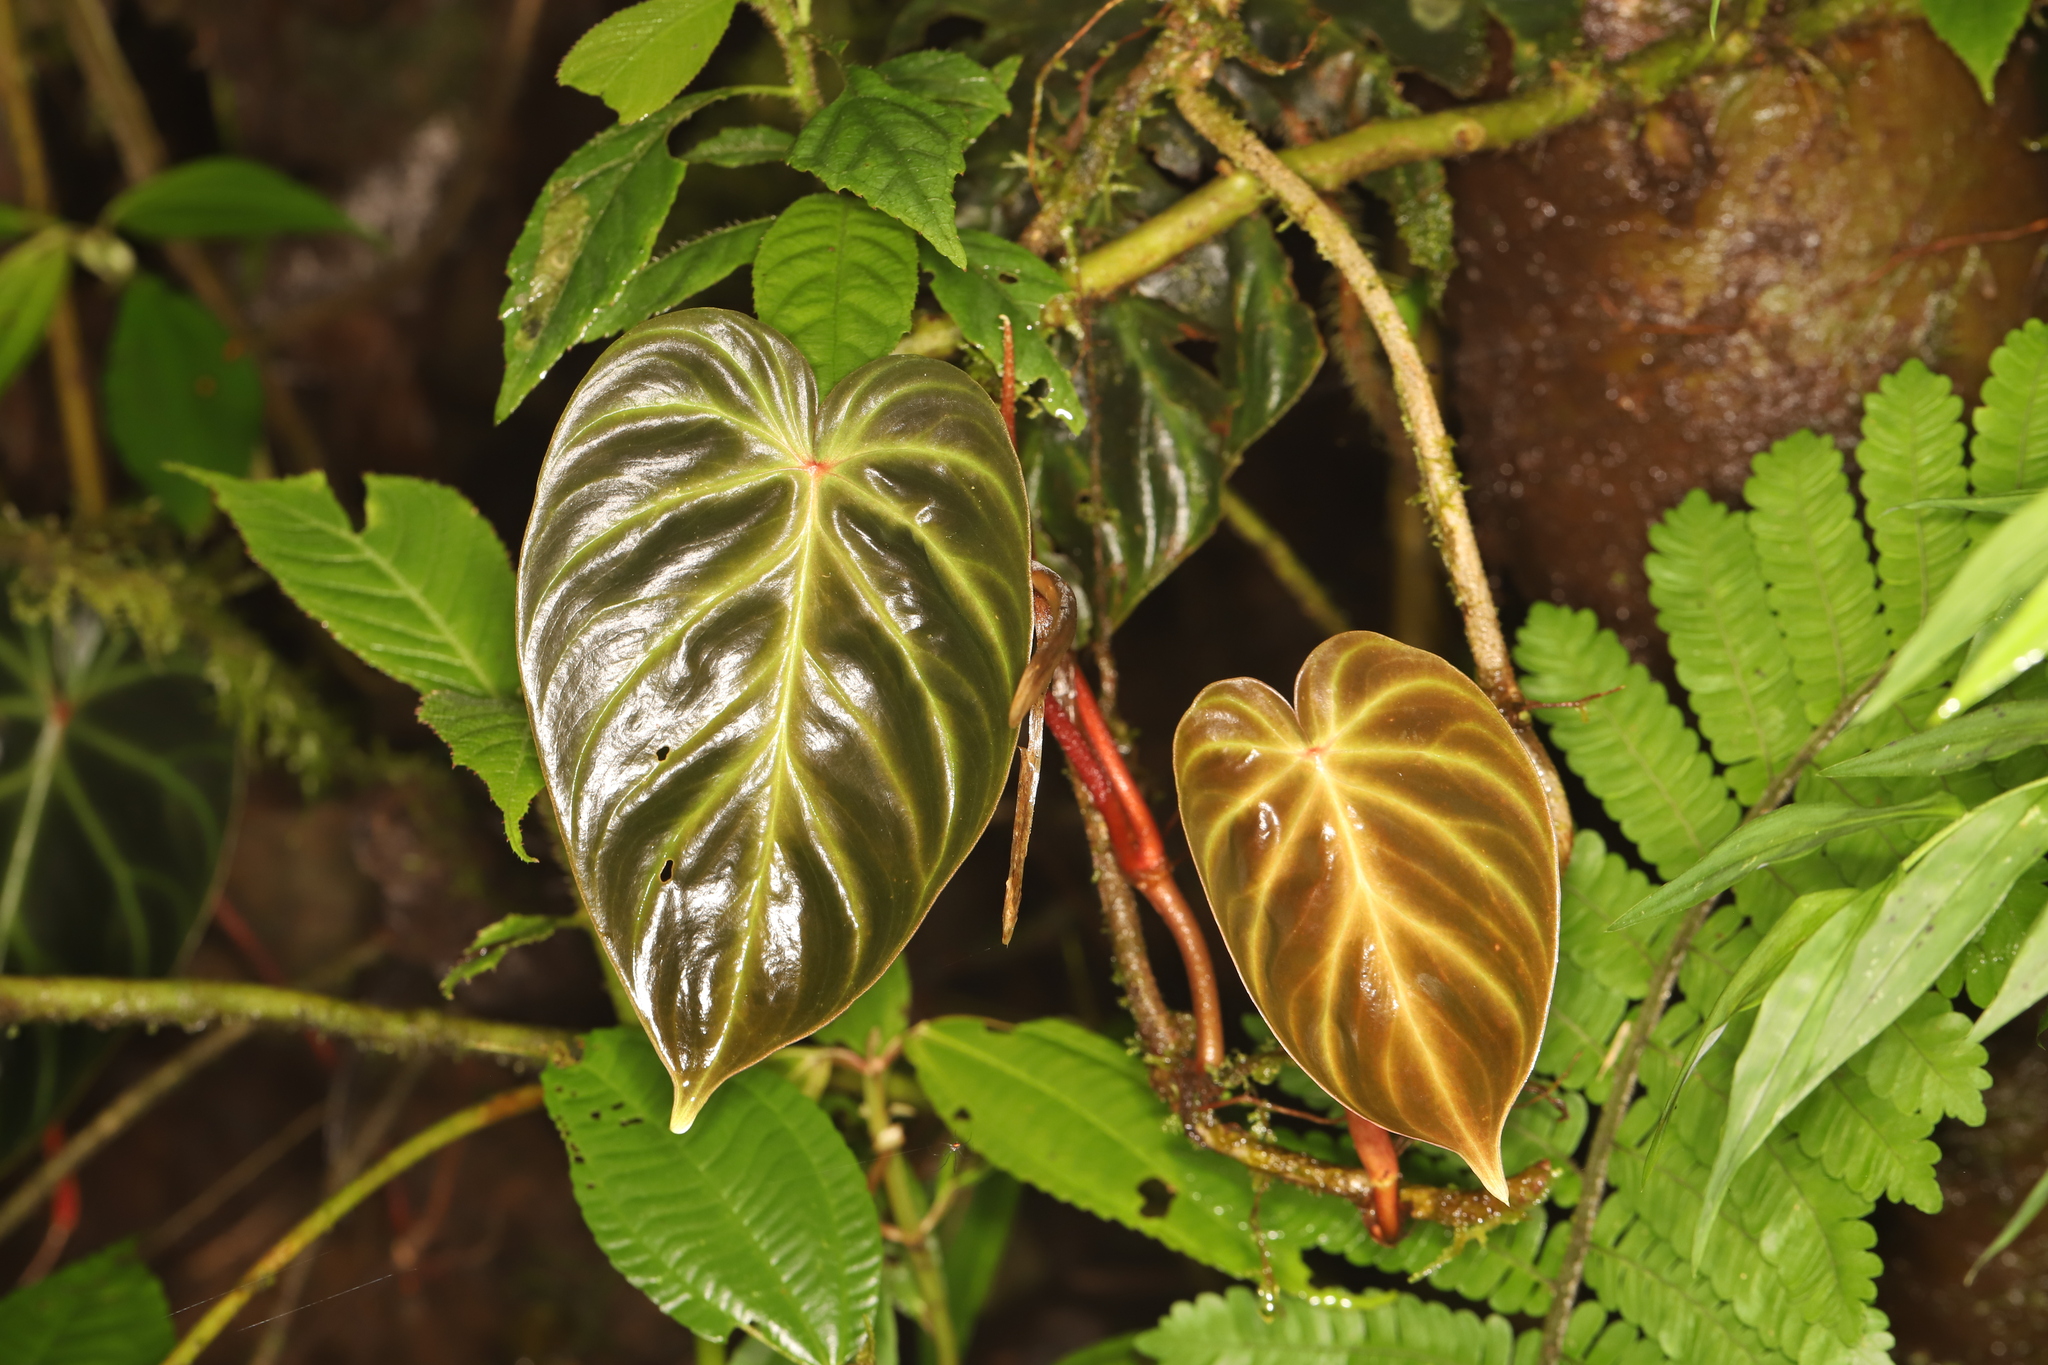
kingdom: Plantae
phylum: Tracheophyta
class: Liliopsida
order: Alismatales
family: Araceae
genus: Philodendron
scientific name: Philodendron verrucosum
